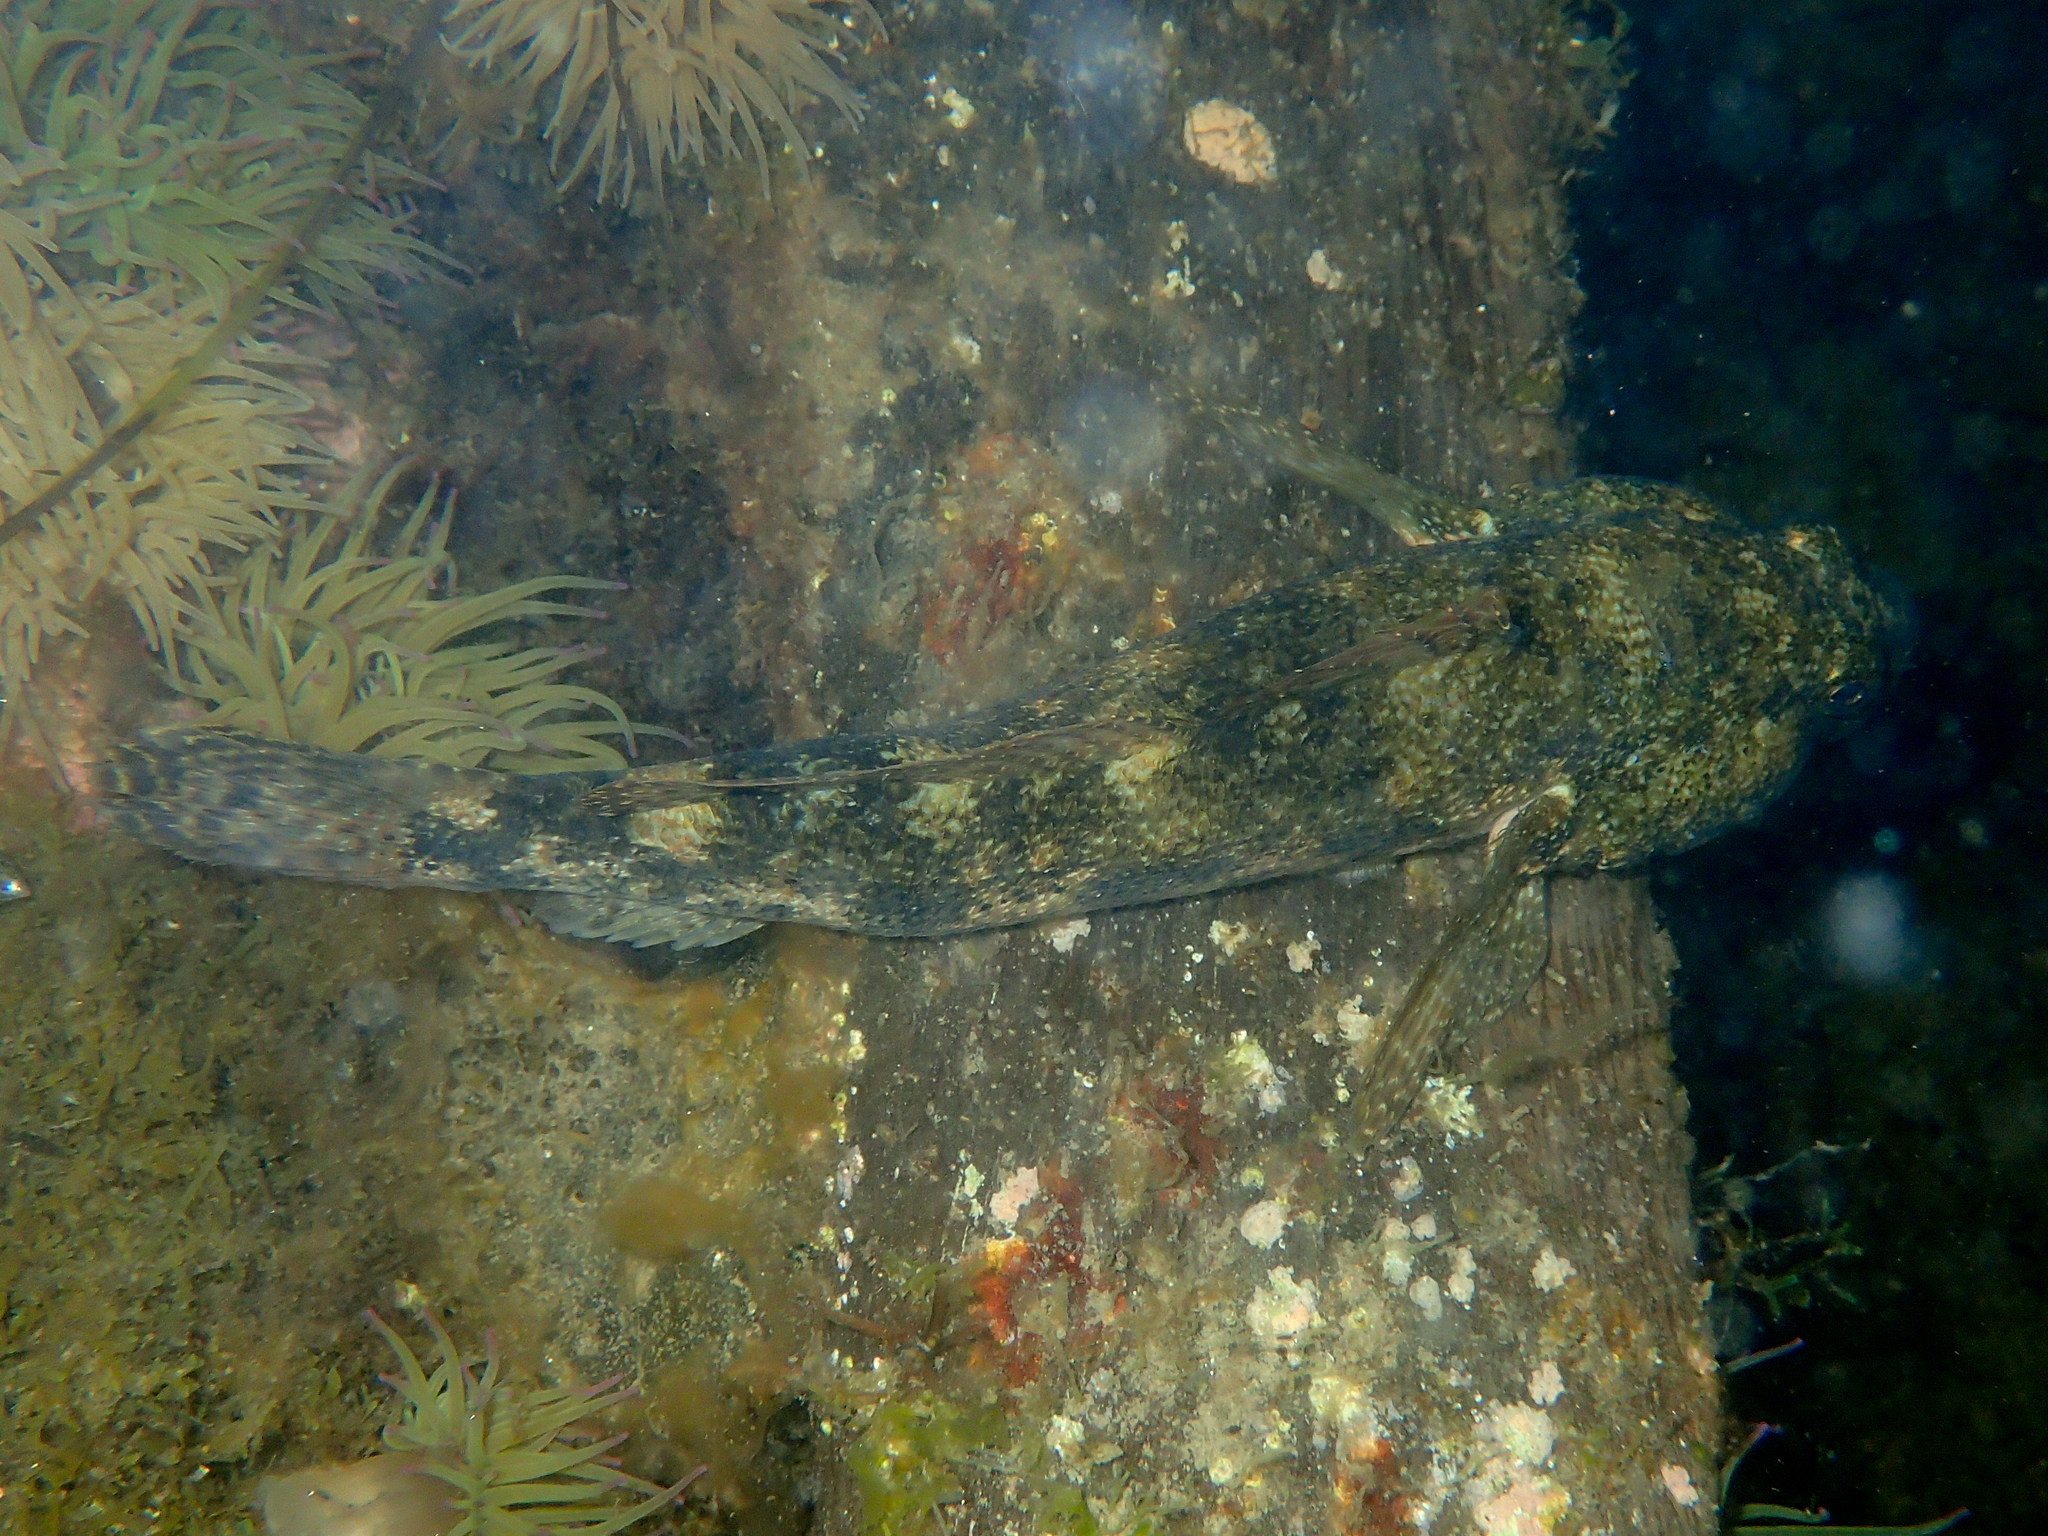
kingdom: Animalia
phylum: Chordata
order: Perciformes
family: Gobiidae
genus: Gobius
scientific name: Gobius cobitis
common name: Giant goby
